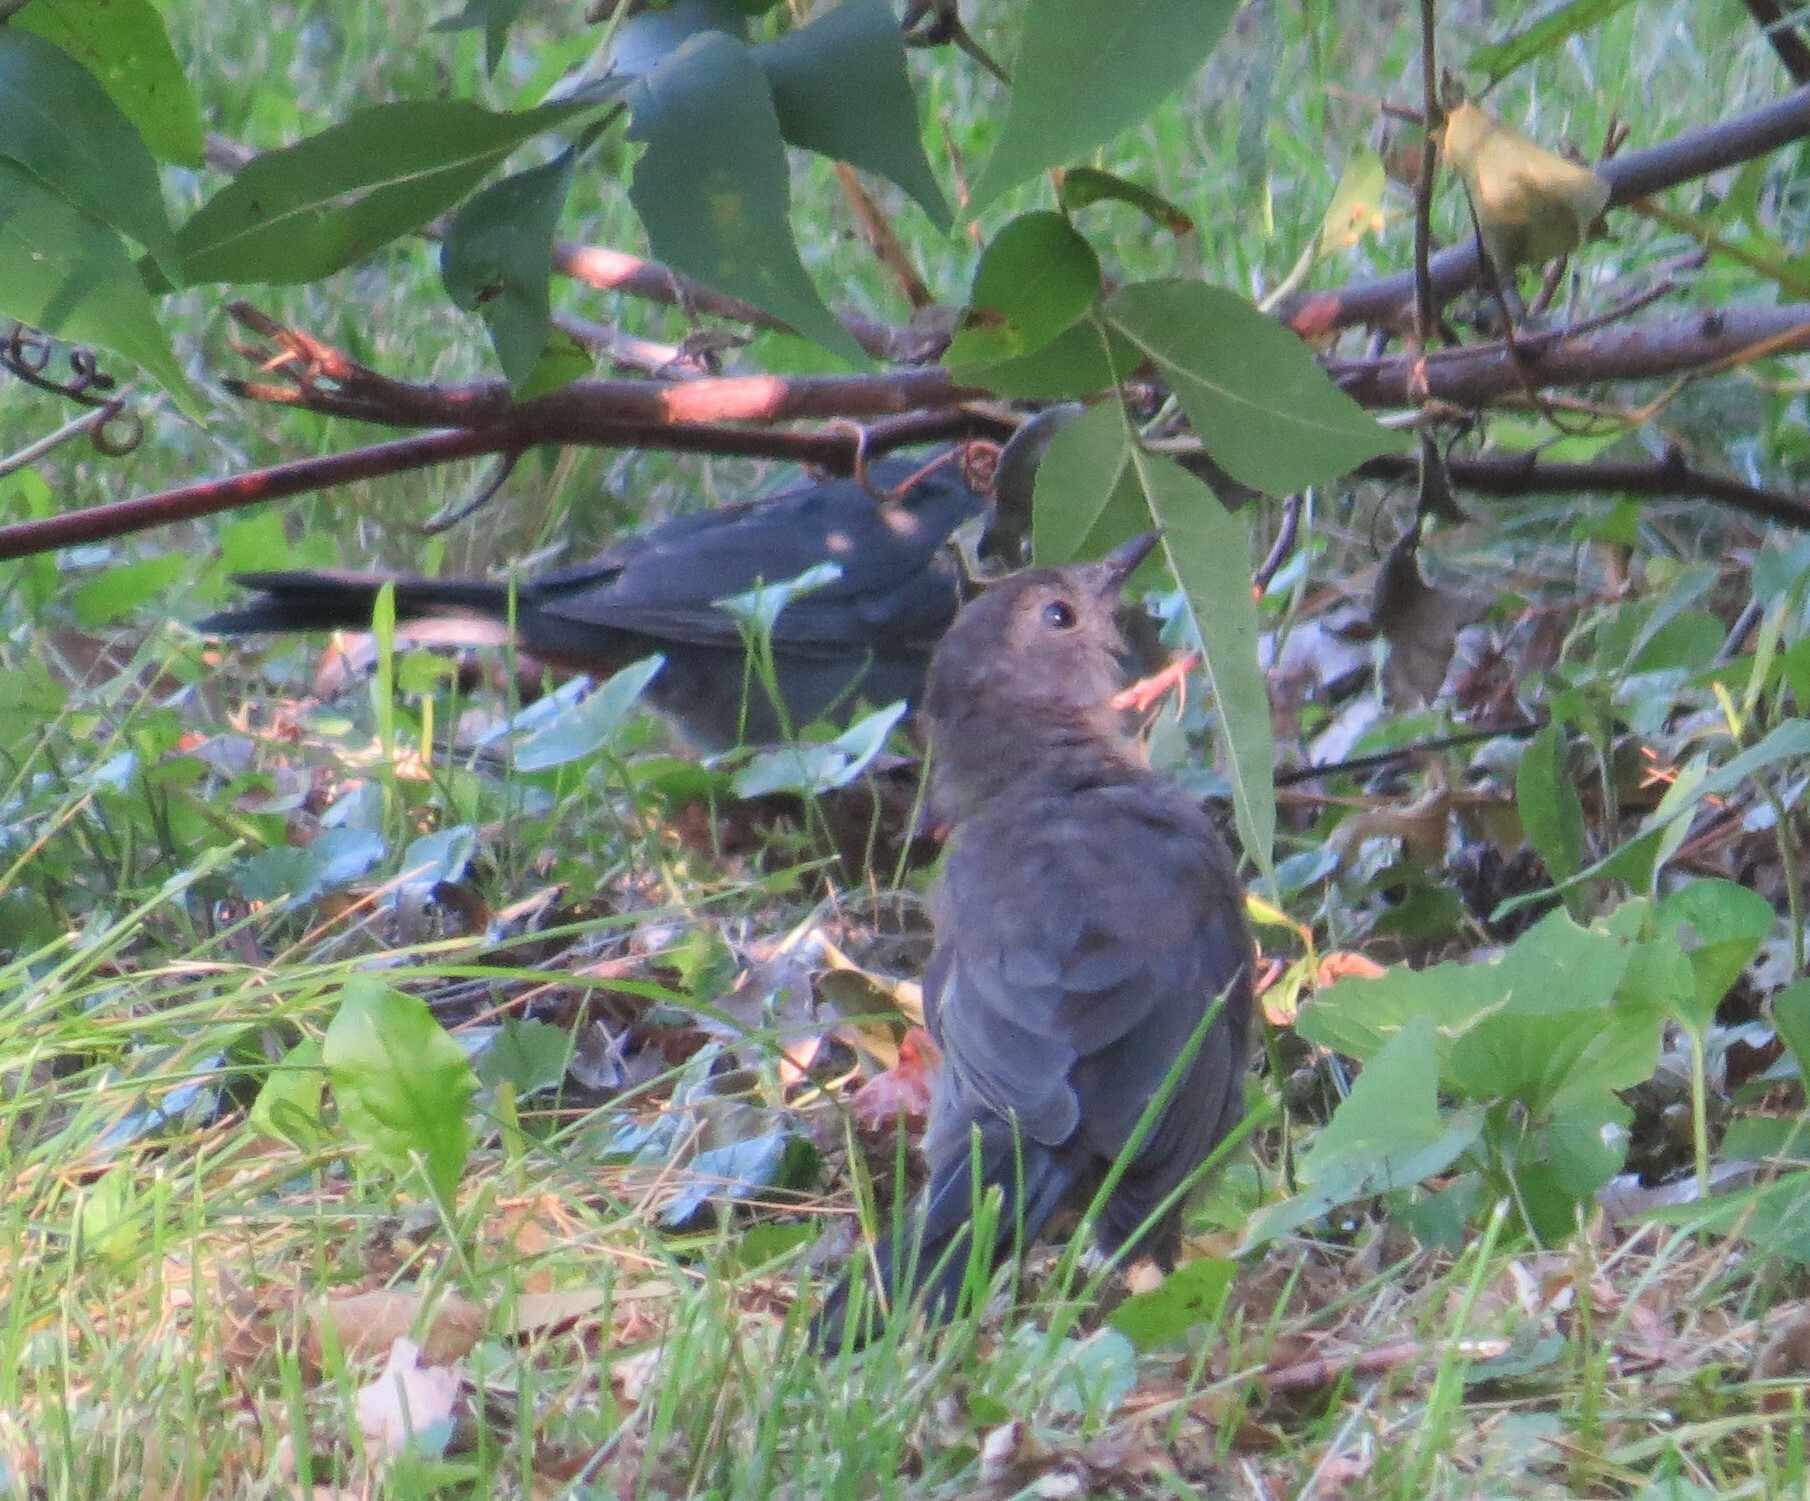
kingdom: Animalia
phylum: Chordata
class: Aves
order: Passeriformes
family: Mimidae
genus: Dumetella
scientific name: Dumetella carolinensis
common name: Gray catbird
